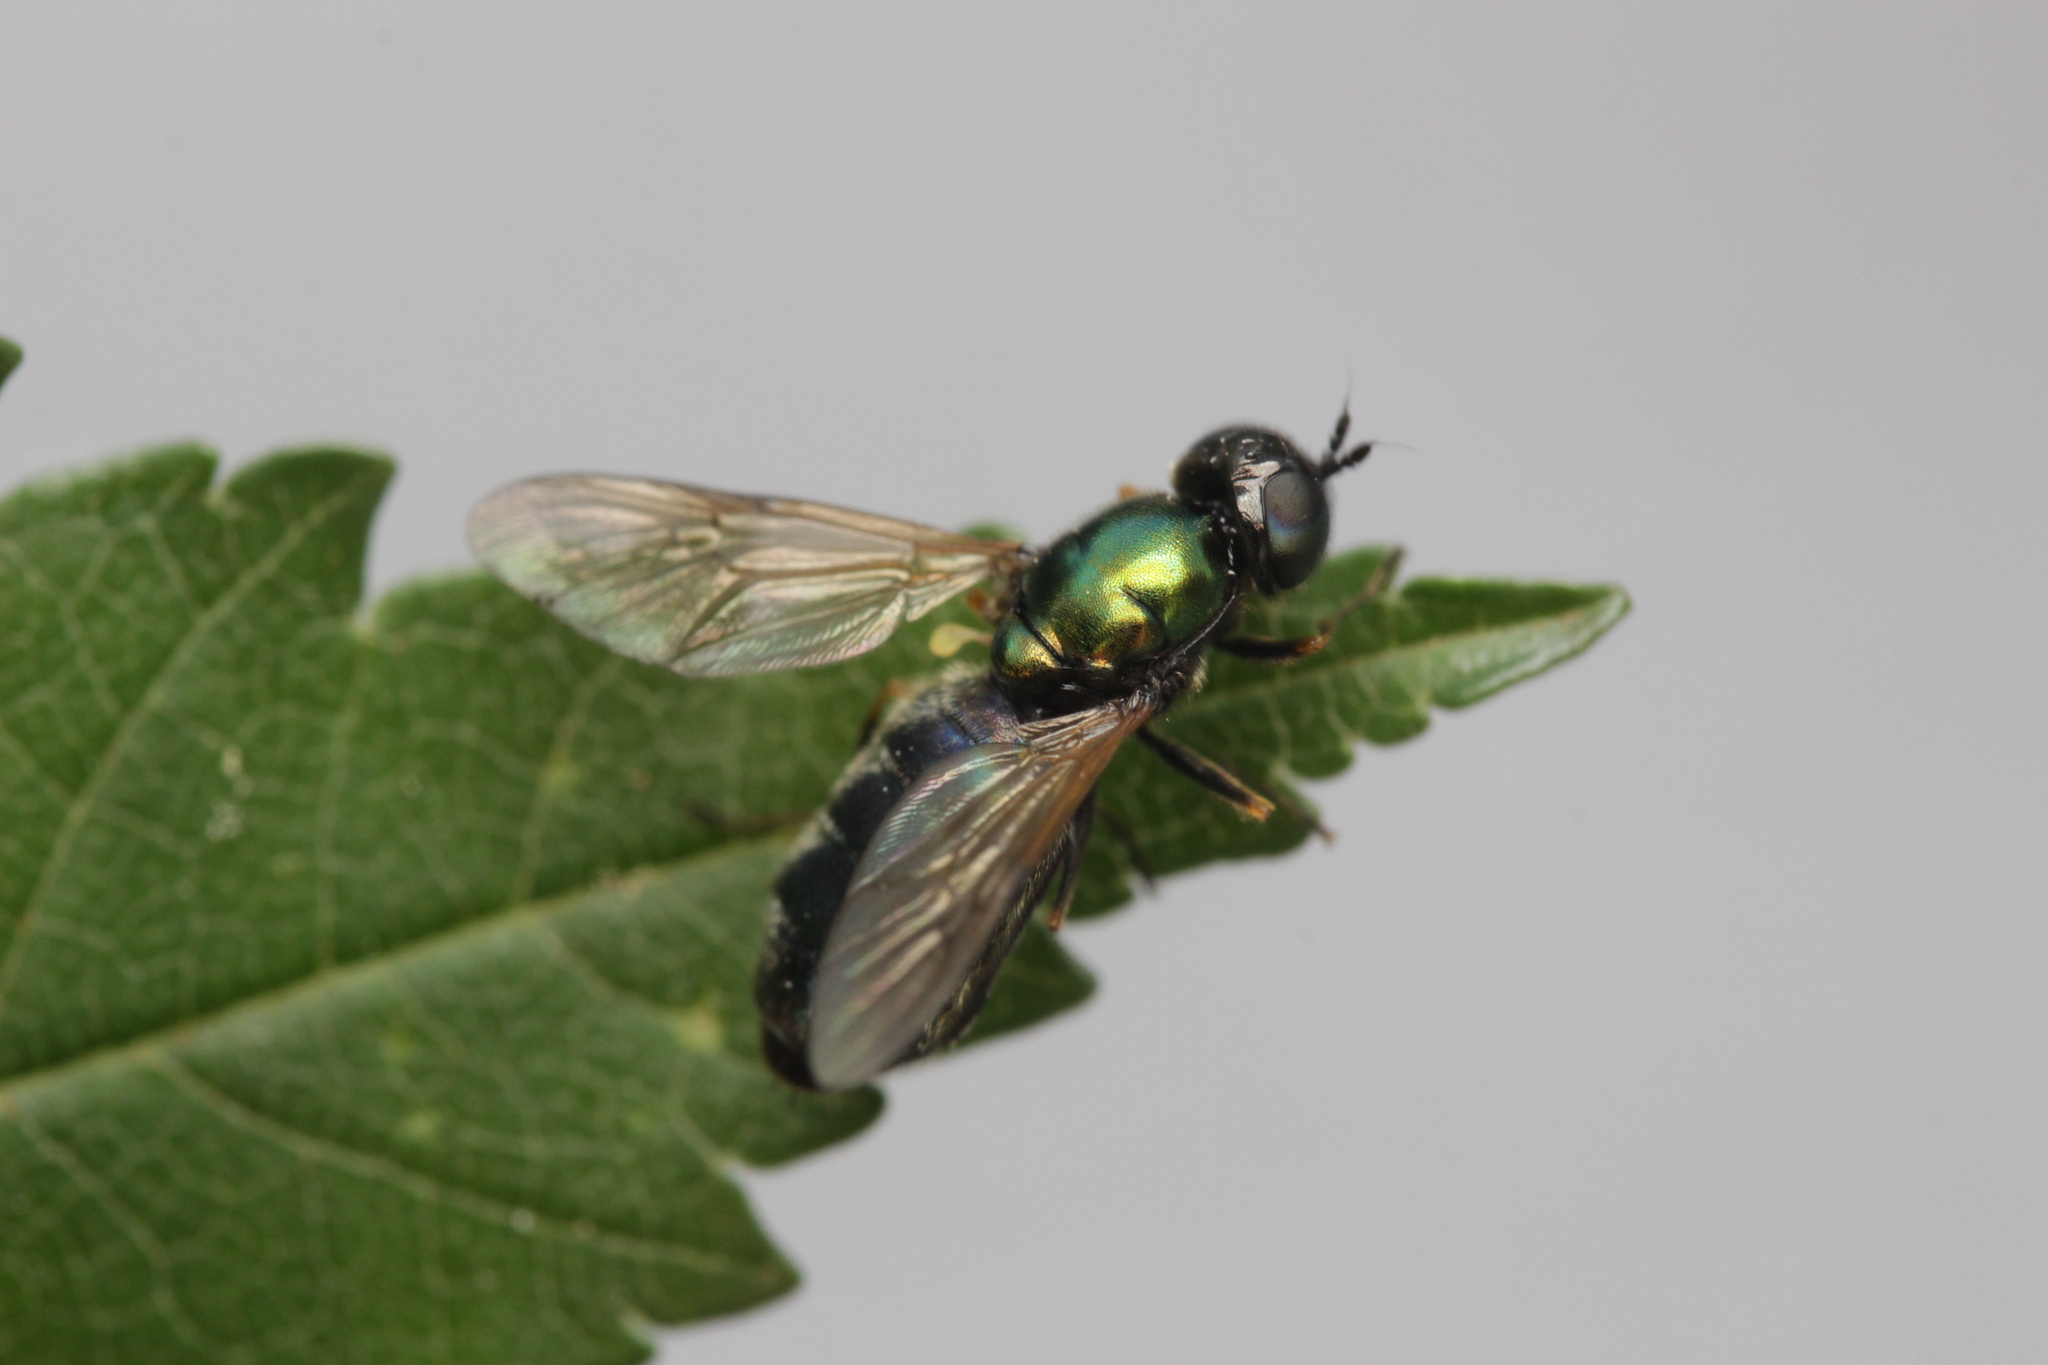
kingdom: Animalia
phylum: Arthropoda
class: Insecta
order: Diptera
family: Stratiomyidae
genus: Chloromyia
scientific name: Chloromyia formosa
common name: Soldier fly
